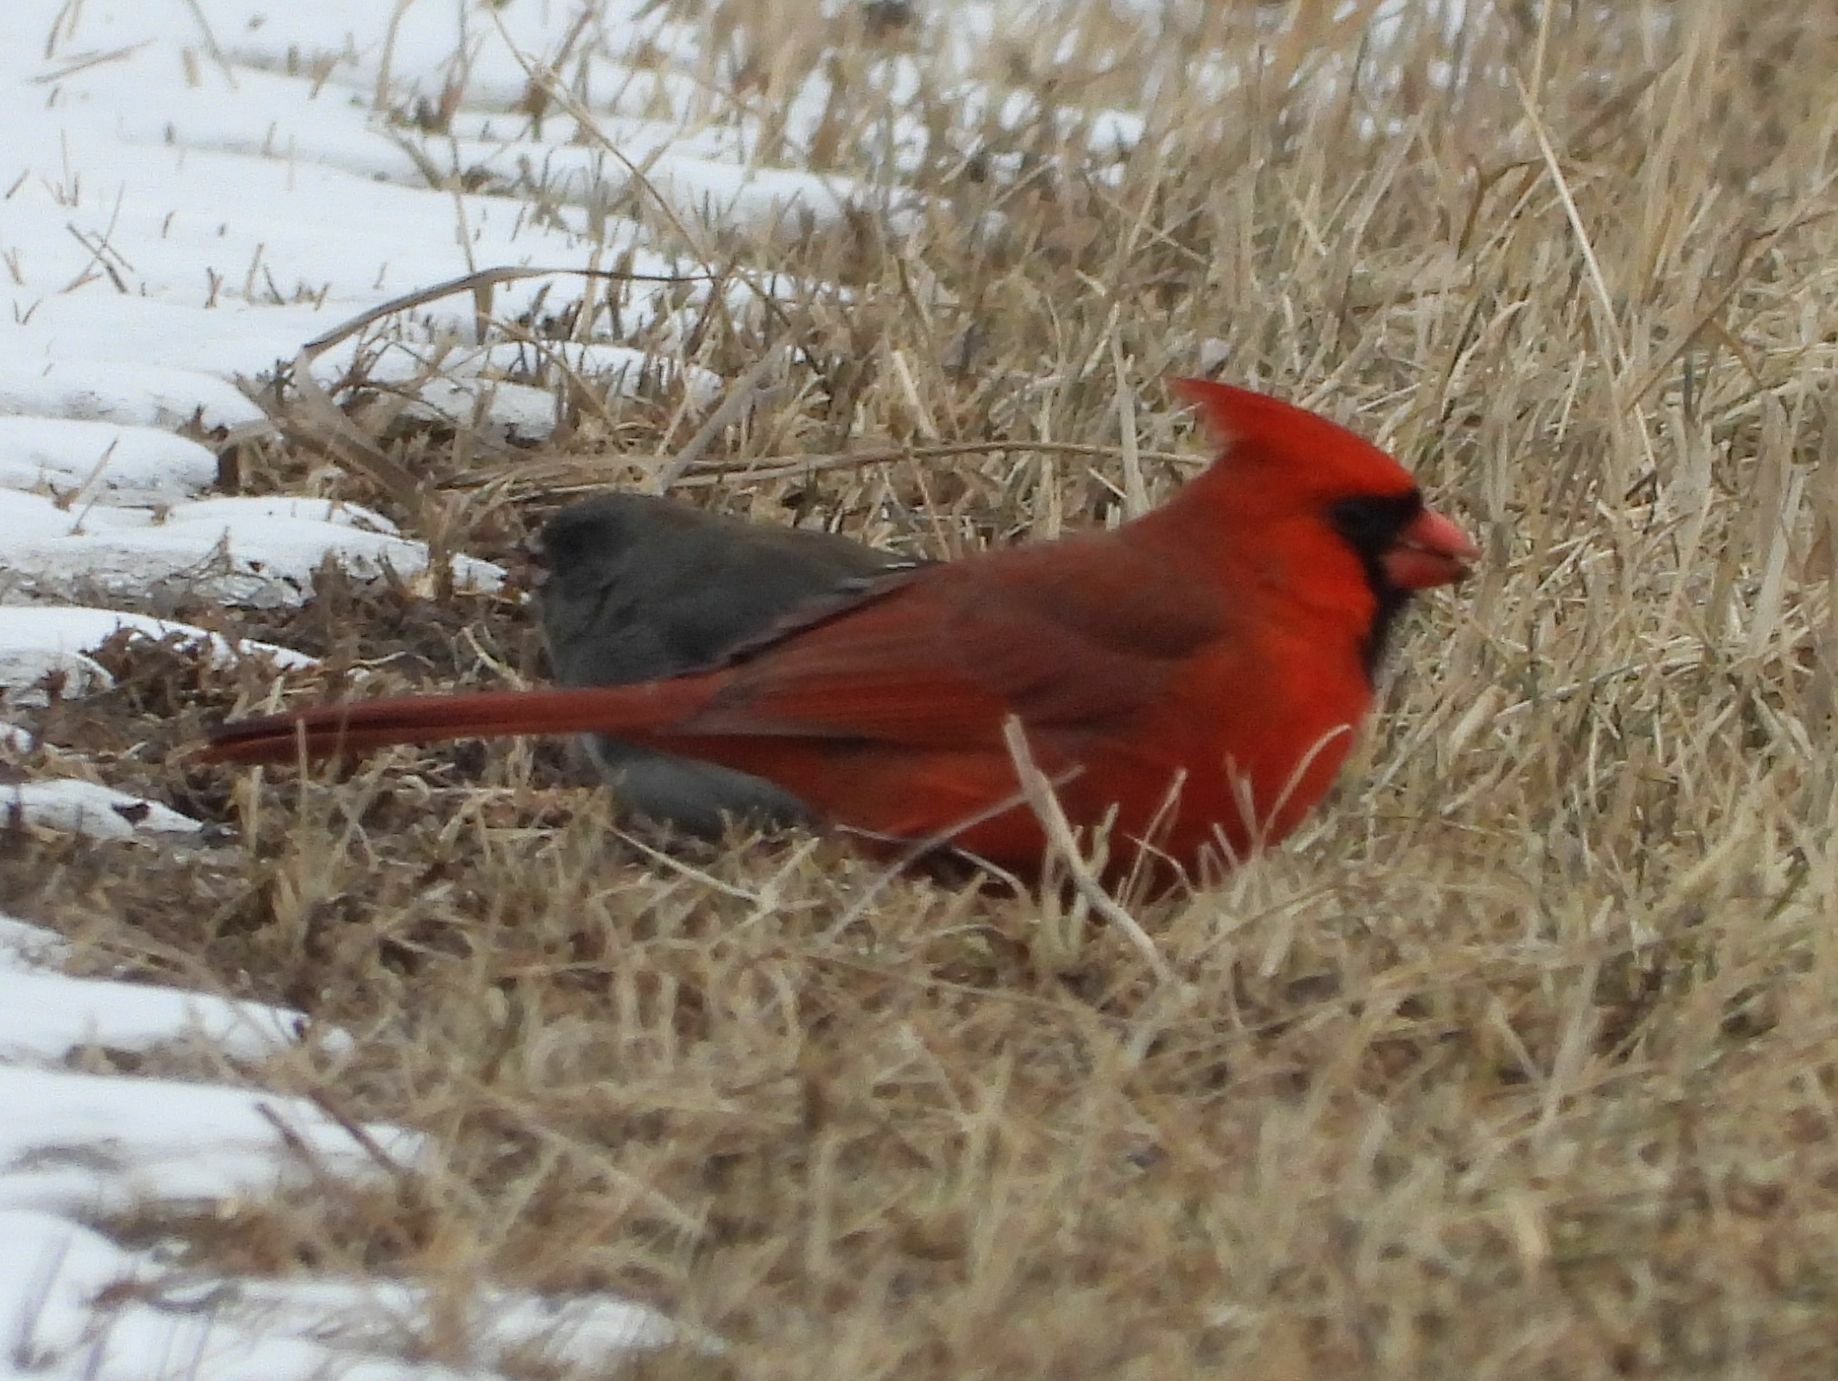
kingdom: Animalia
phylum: Chordata
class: Aves
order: Passeriformes
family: Cardinalidae
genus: Cardinalis
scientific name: Cardinalis cardinalis
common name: Northern cardinal
